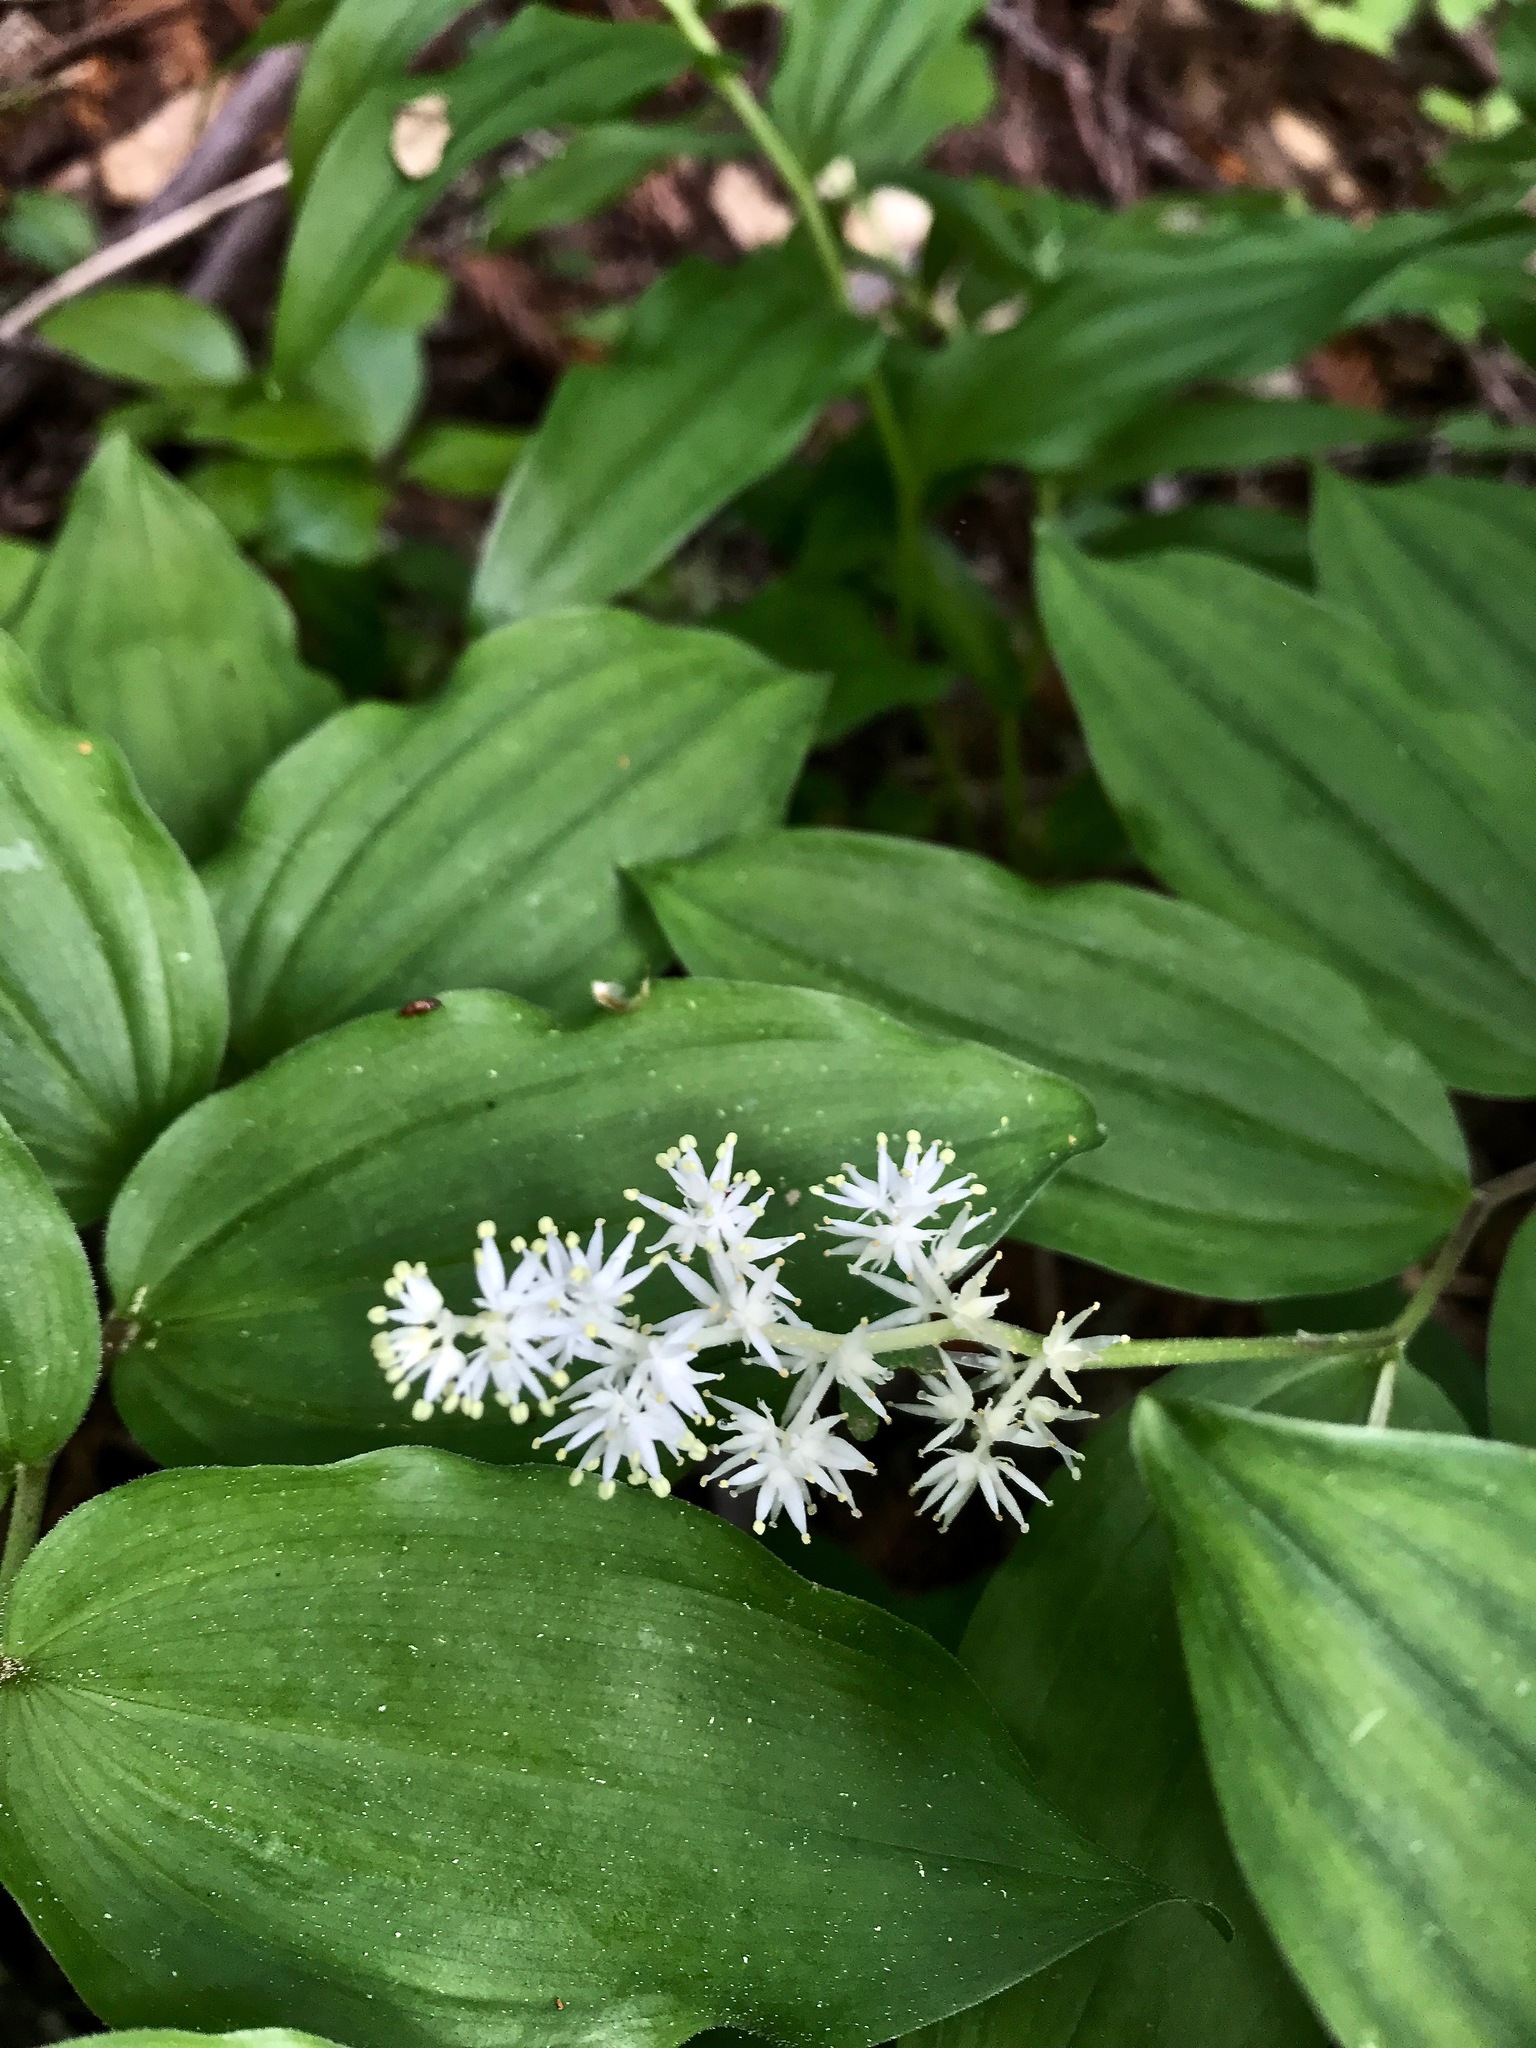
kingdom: Plantae
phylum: Tracheophyta
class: Liliopsida
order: Asparagales
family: Asparagaceae
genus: Maianthemum
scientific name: Maianthemum racemosum
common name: False spikenard
